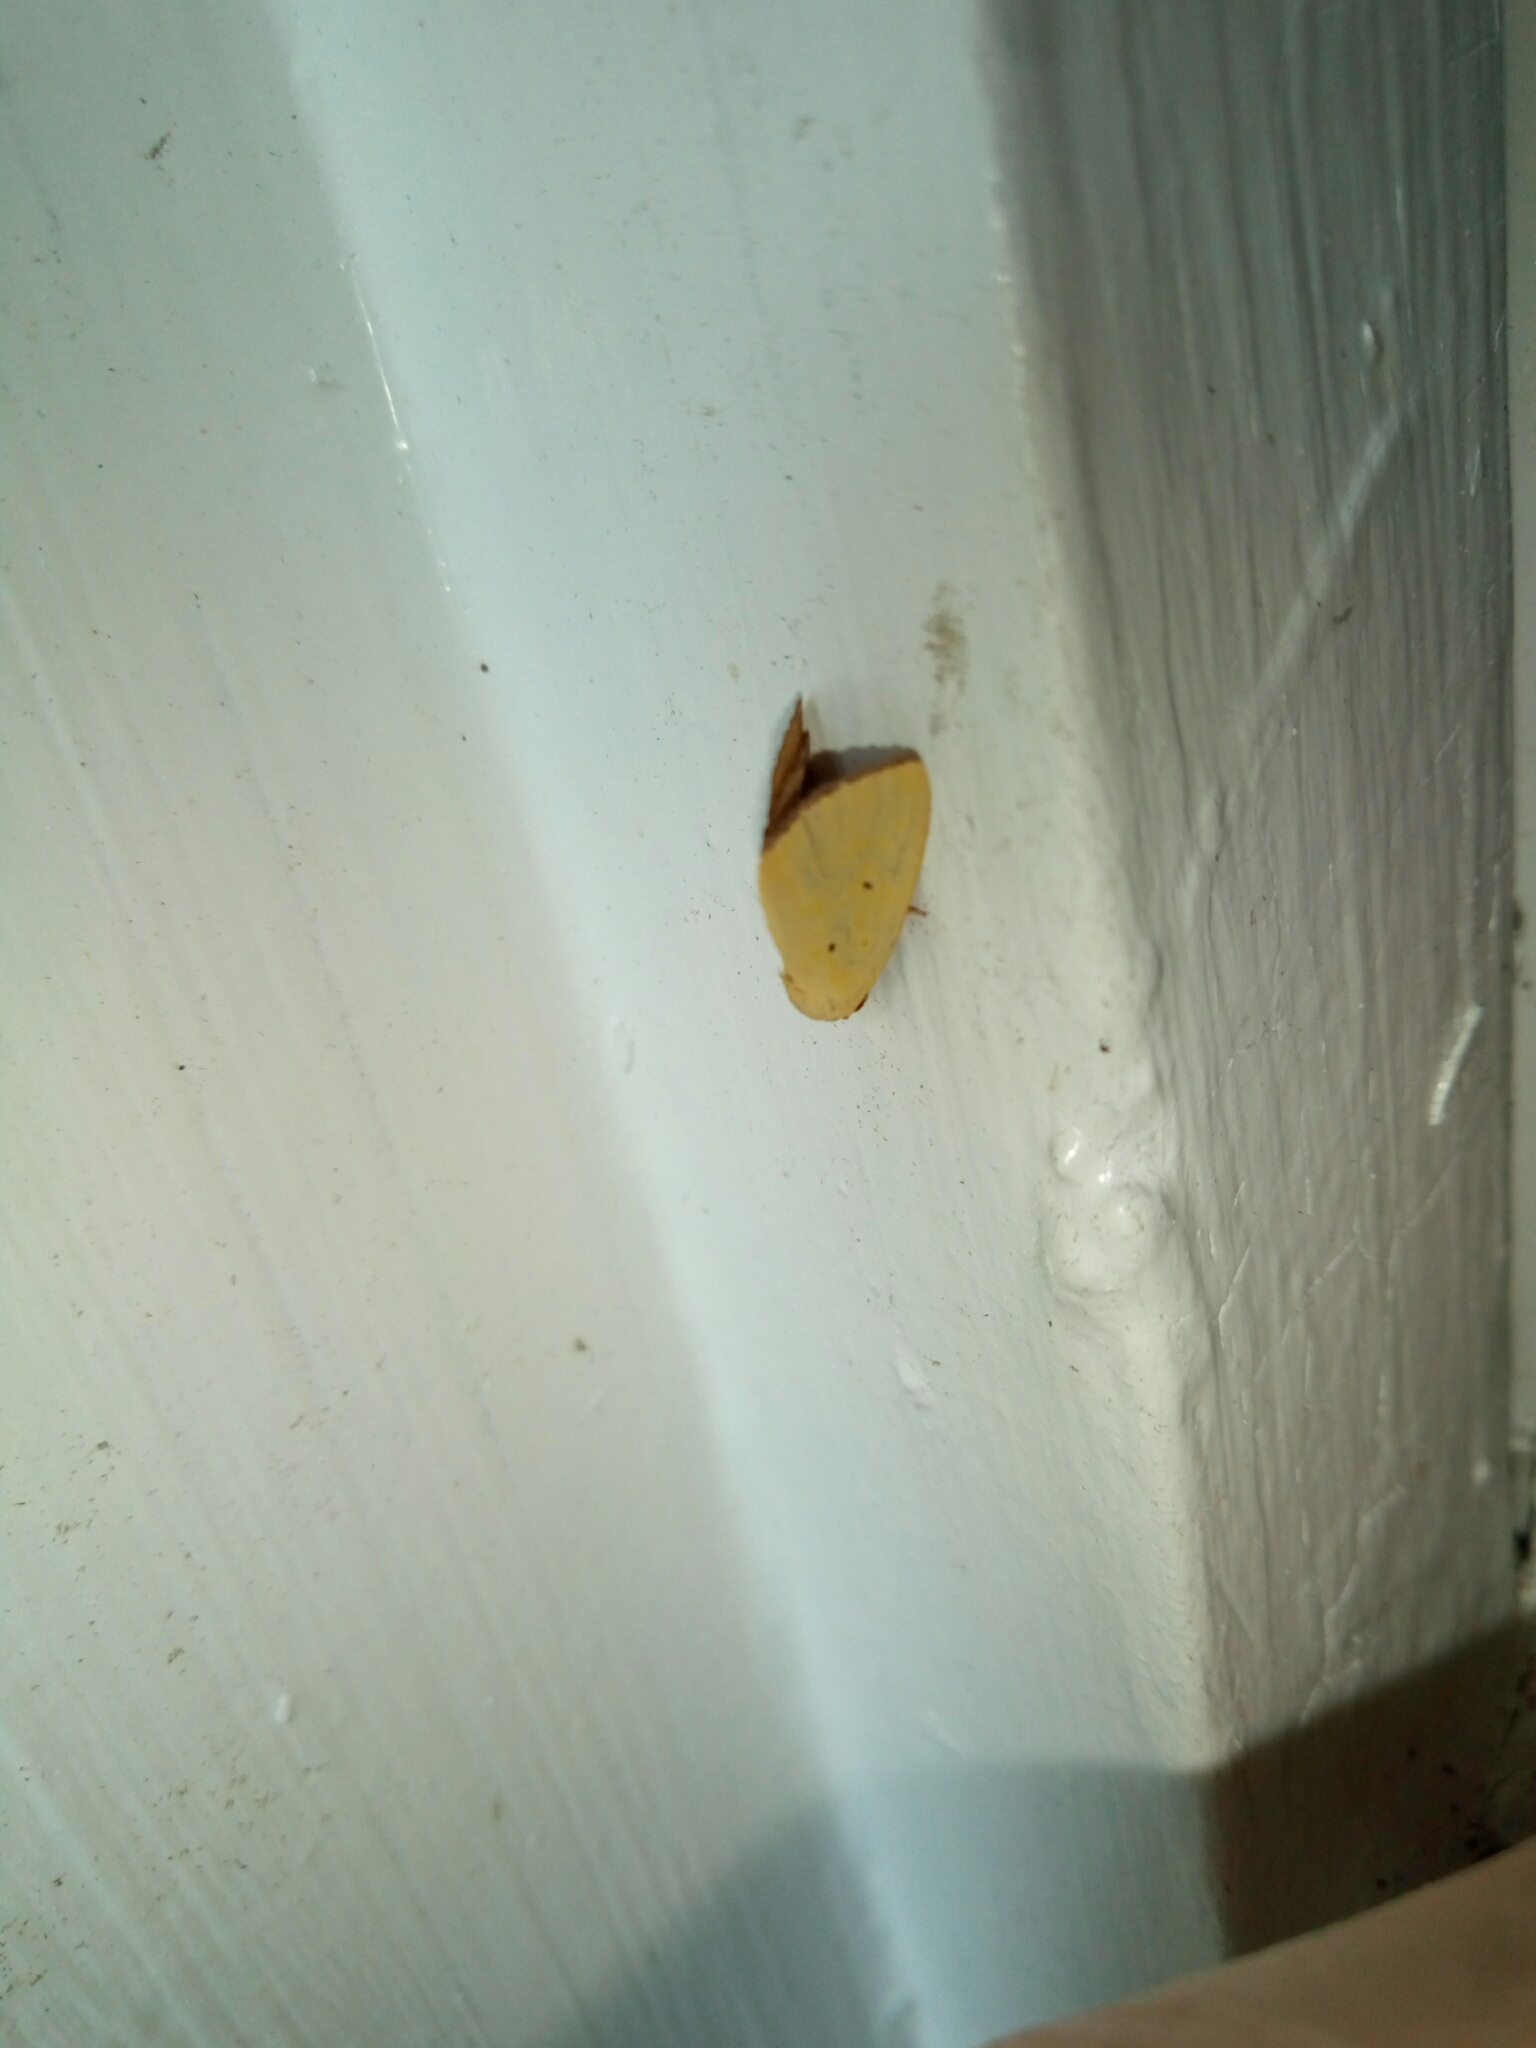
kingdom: Animalia
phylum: Arthropoda
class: Insecta
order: Lepidoptera
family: Noctuidae
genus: Marimatha
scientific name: Marimatha nigrofimbria
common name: Black-bordered lemon moth
